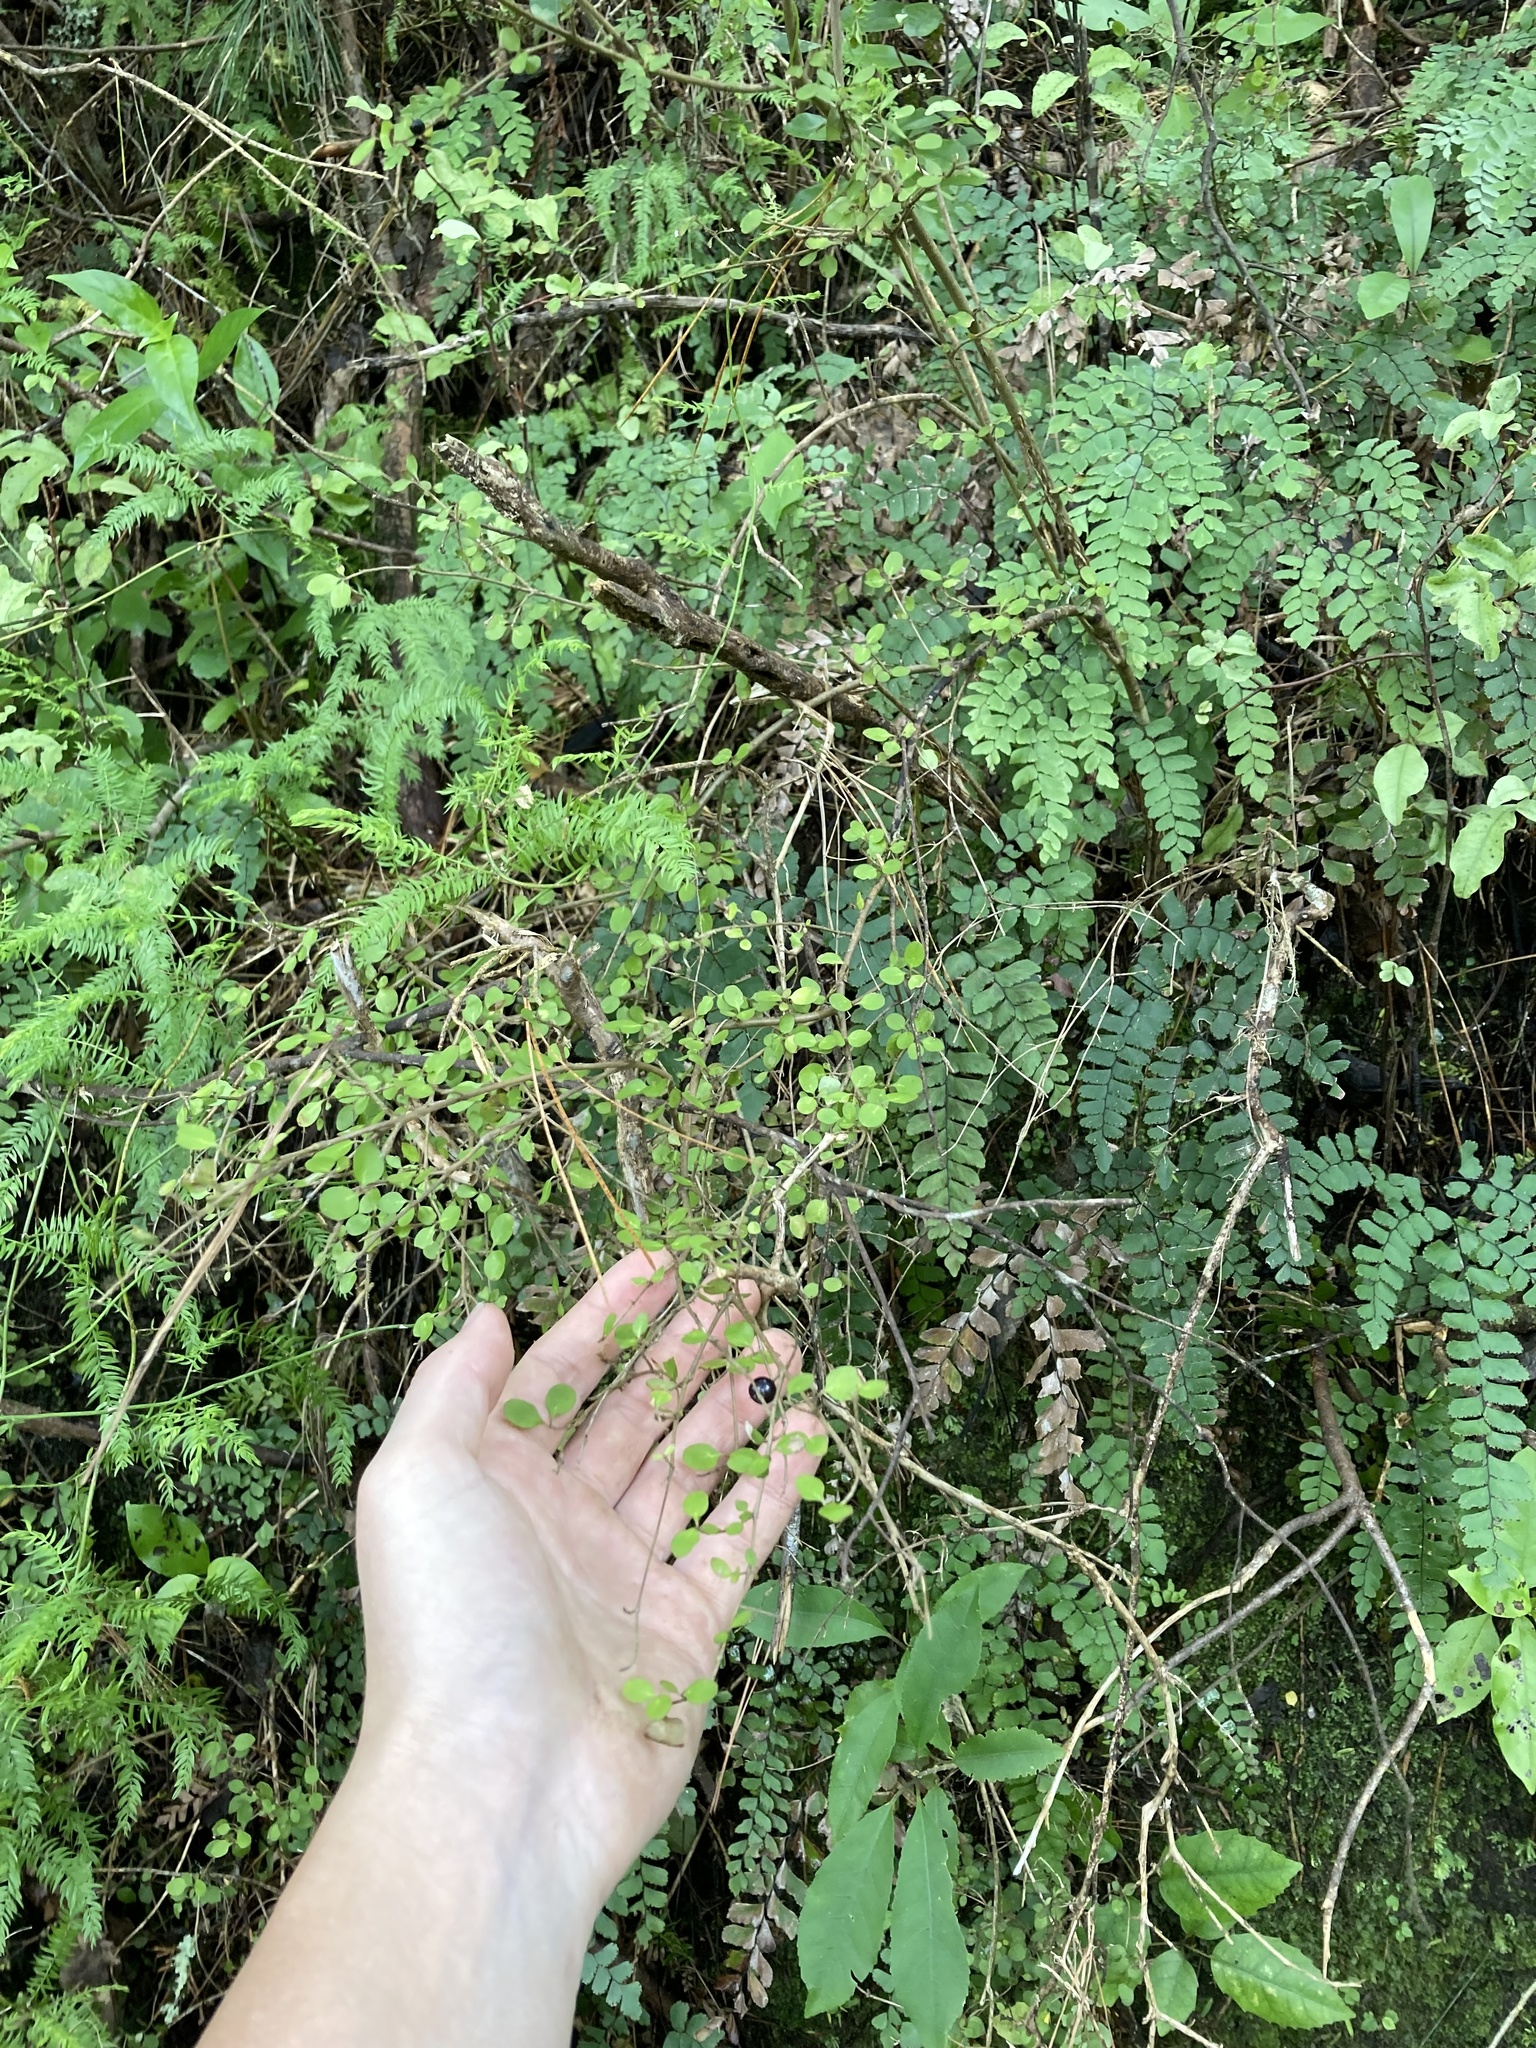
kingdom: Plantae
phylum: Tracheophyta
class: Magnoliopsida
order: Gentianales
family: Rubiaceae
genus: Coprosma
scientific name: Coprosma rhamnoides
